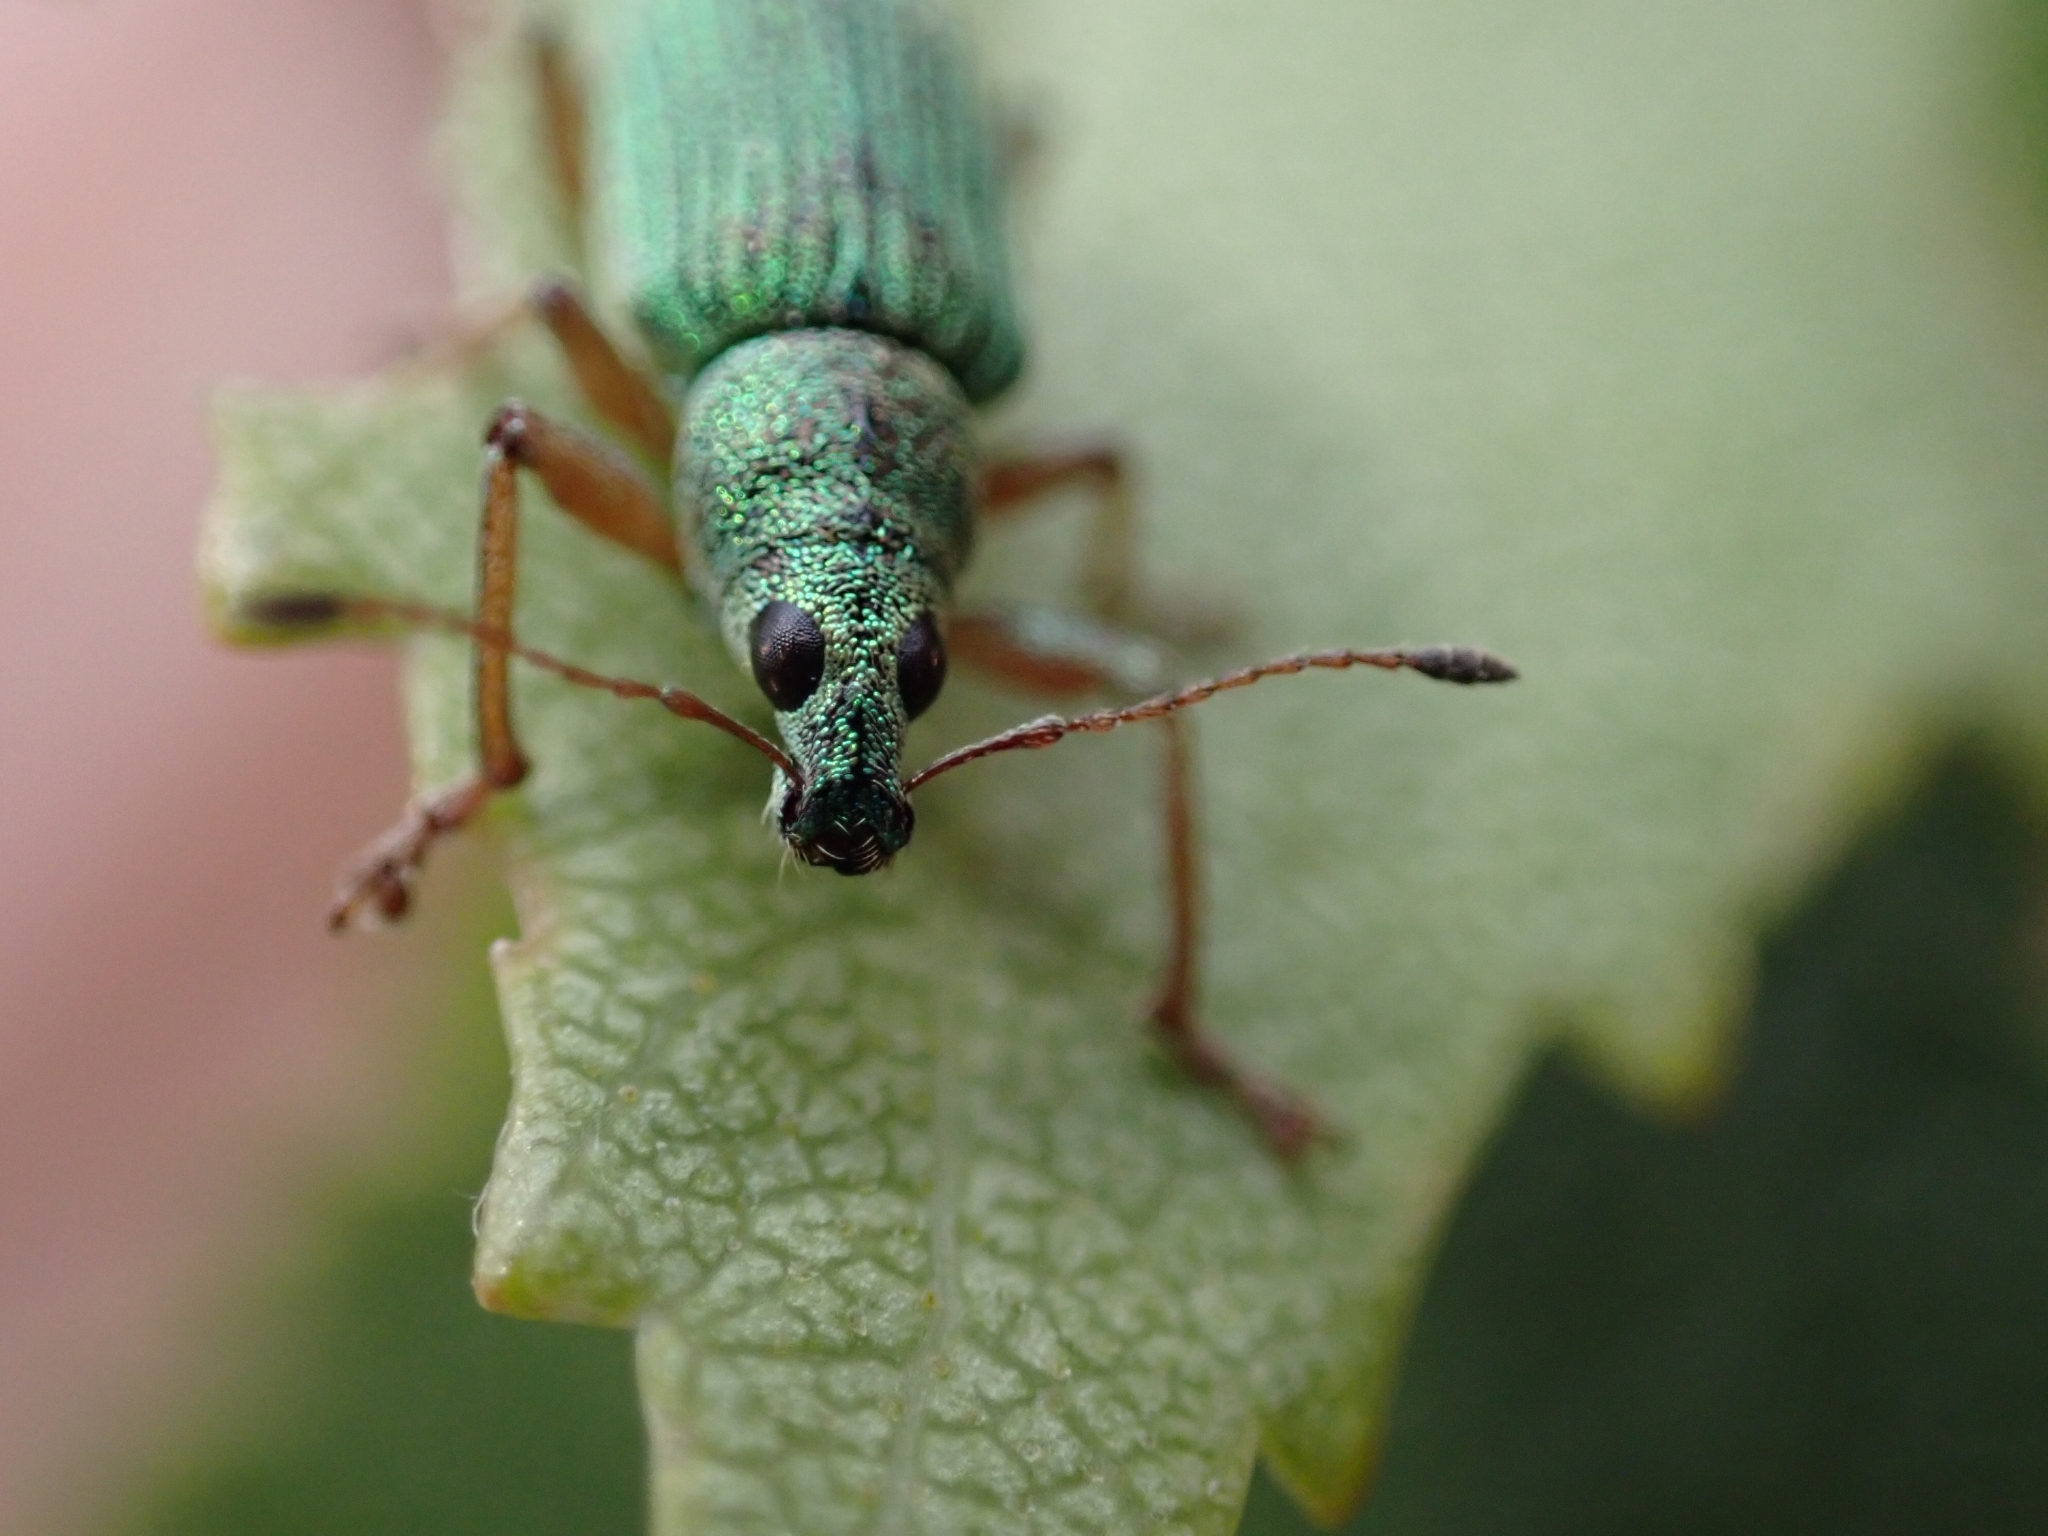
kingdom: Animalia
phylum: Arthropoda
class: Insecta
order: Coleoptera
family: Curculionidae
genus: Polydrusus
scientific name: Polydrusus formosus
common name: Weevil
